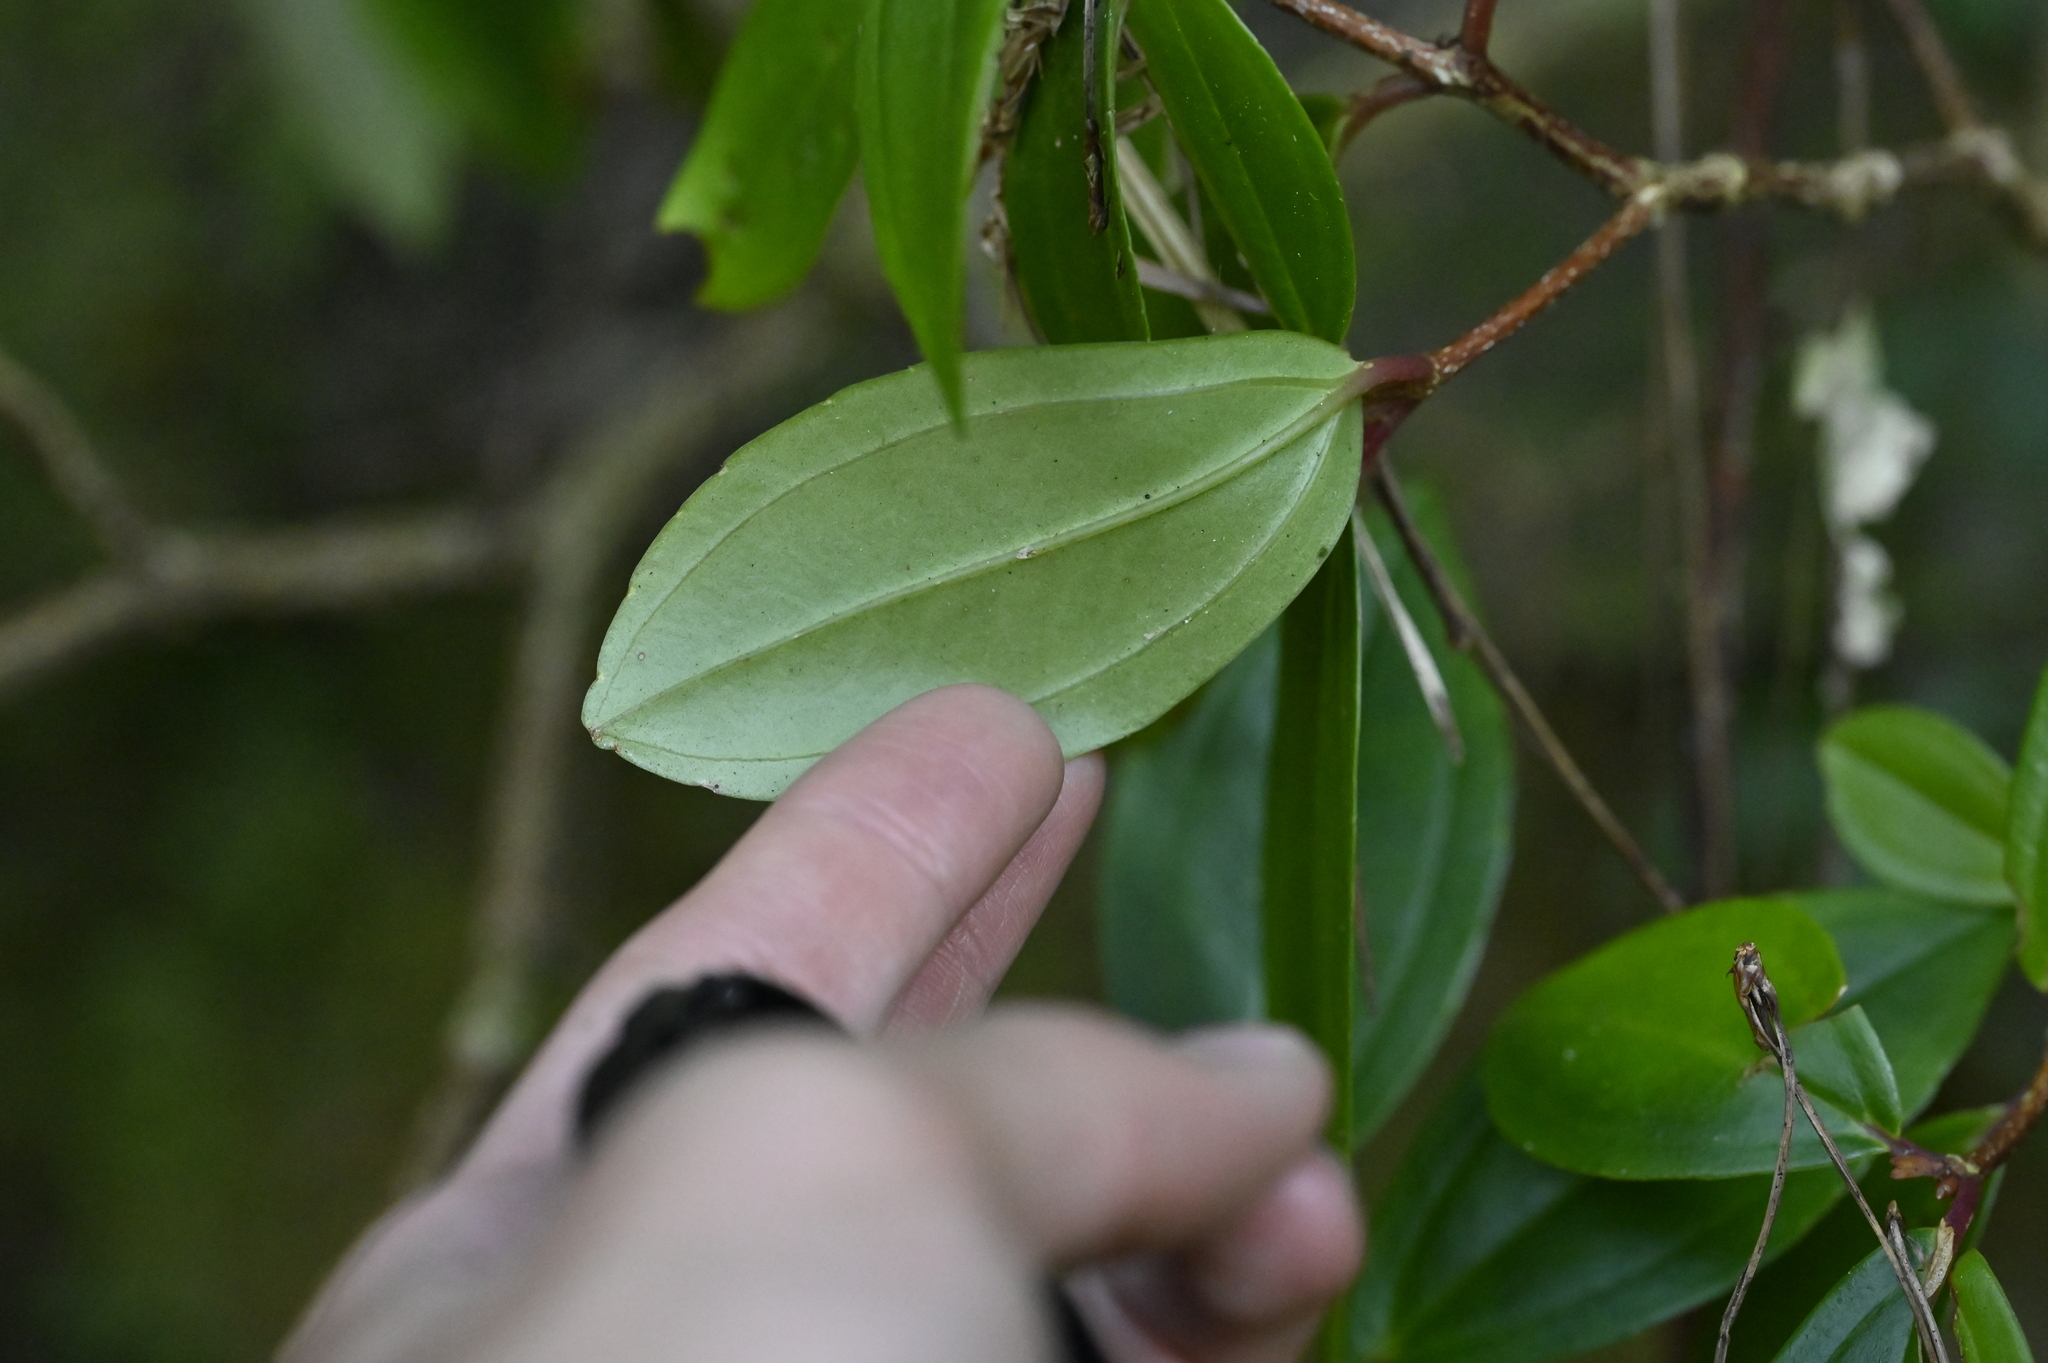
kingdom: Plantae
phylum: Tracheophyta
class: Magnoliopsida
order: Myrtales
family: Melastomataceae
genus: Medinilla
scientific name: Medinilla fengii
